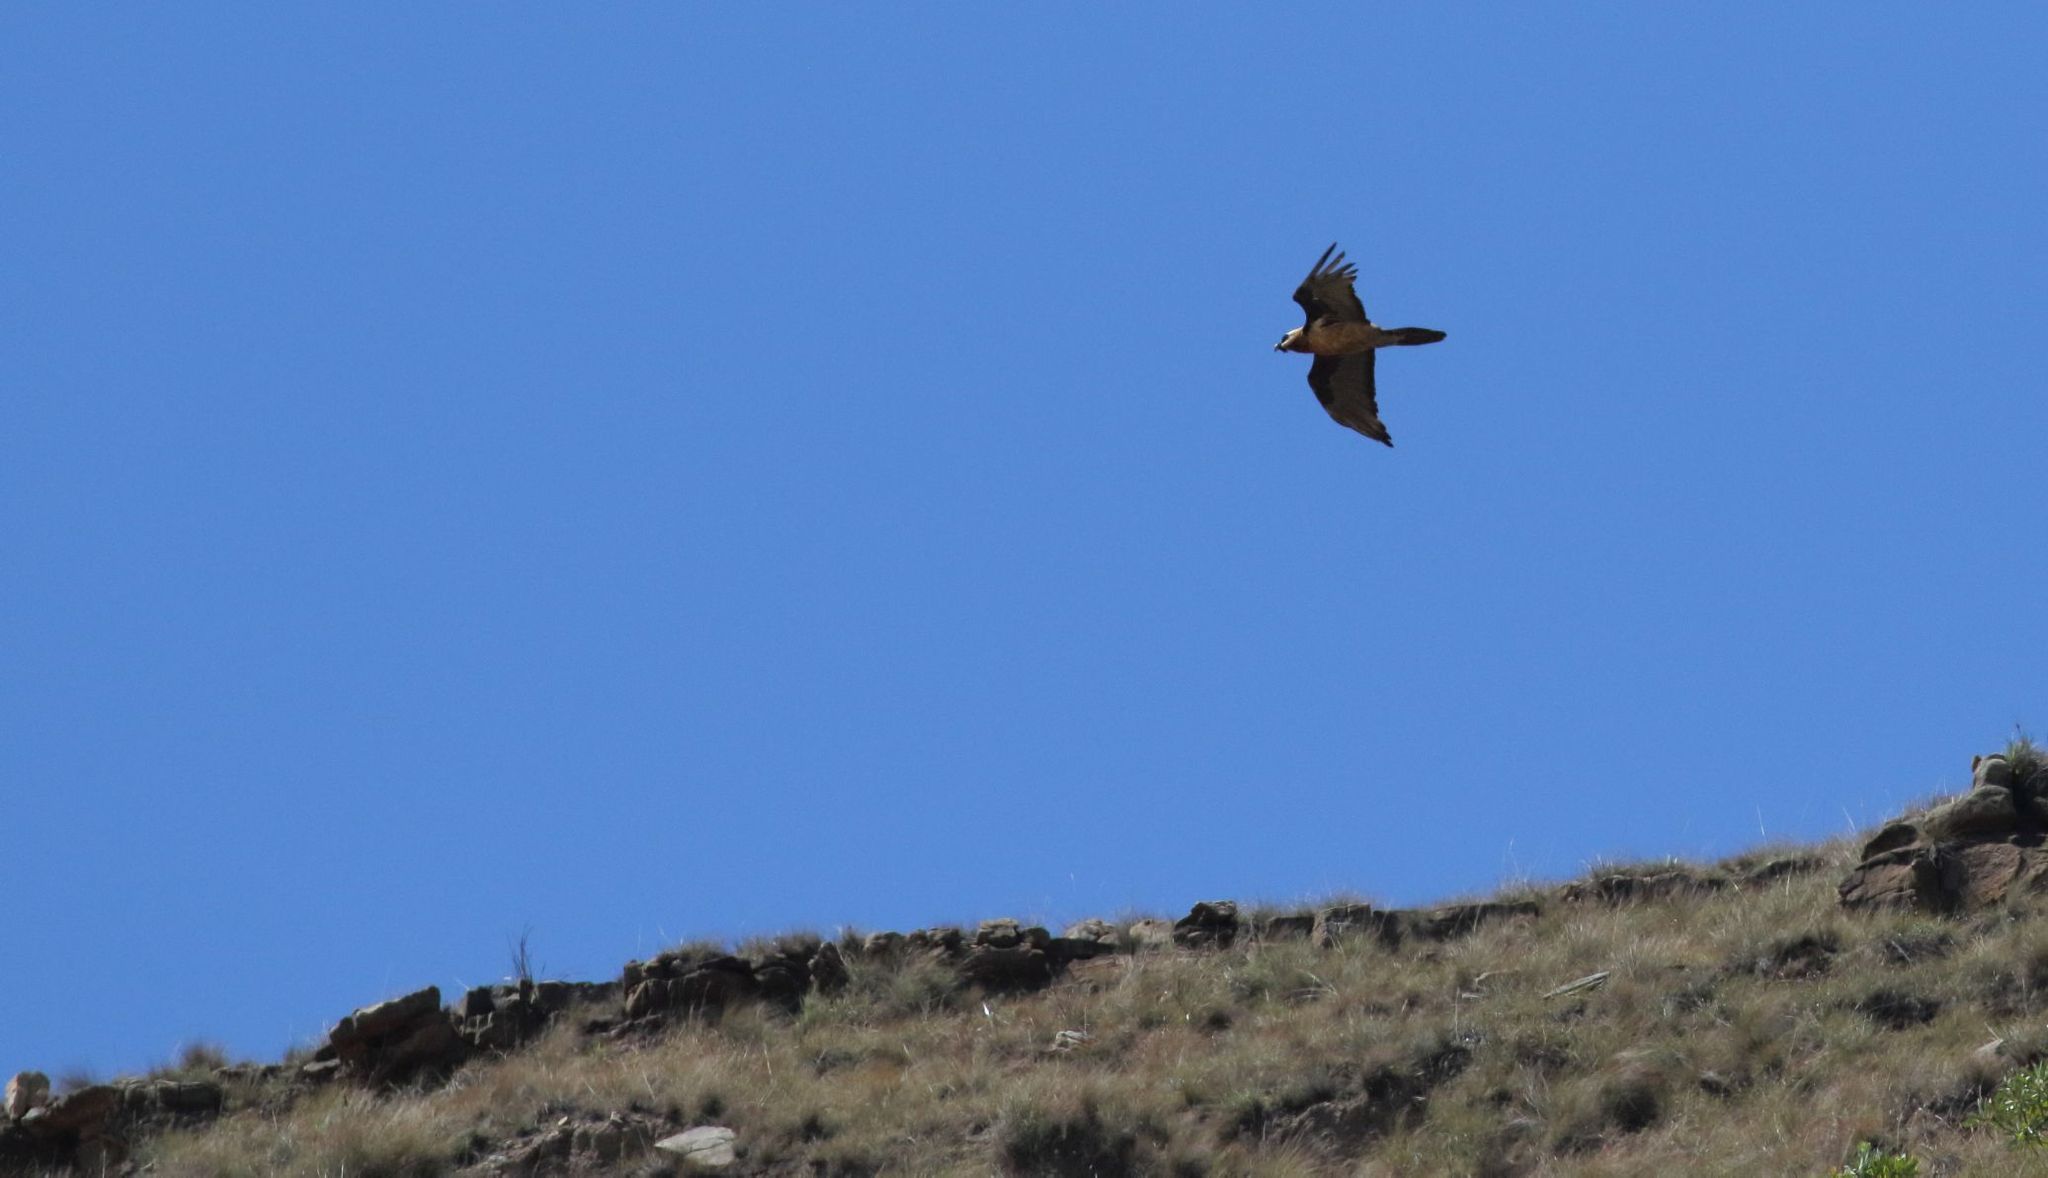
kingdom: Animalia
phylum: Chordata
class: Aves
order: Accipitriformes
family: Accipitridae
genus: Gypaetus
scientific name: Gypaetus barbatus
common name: Bearded vulture
